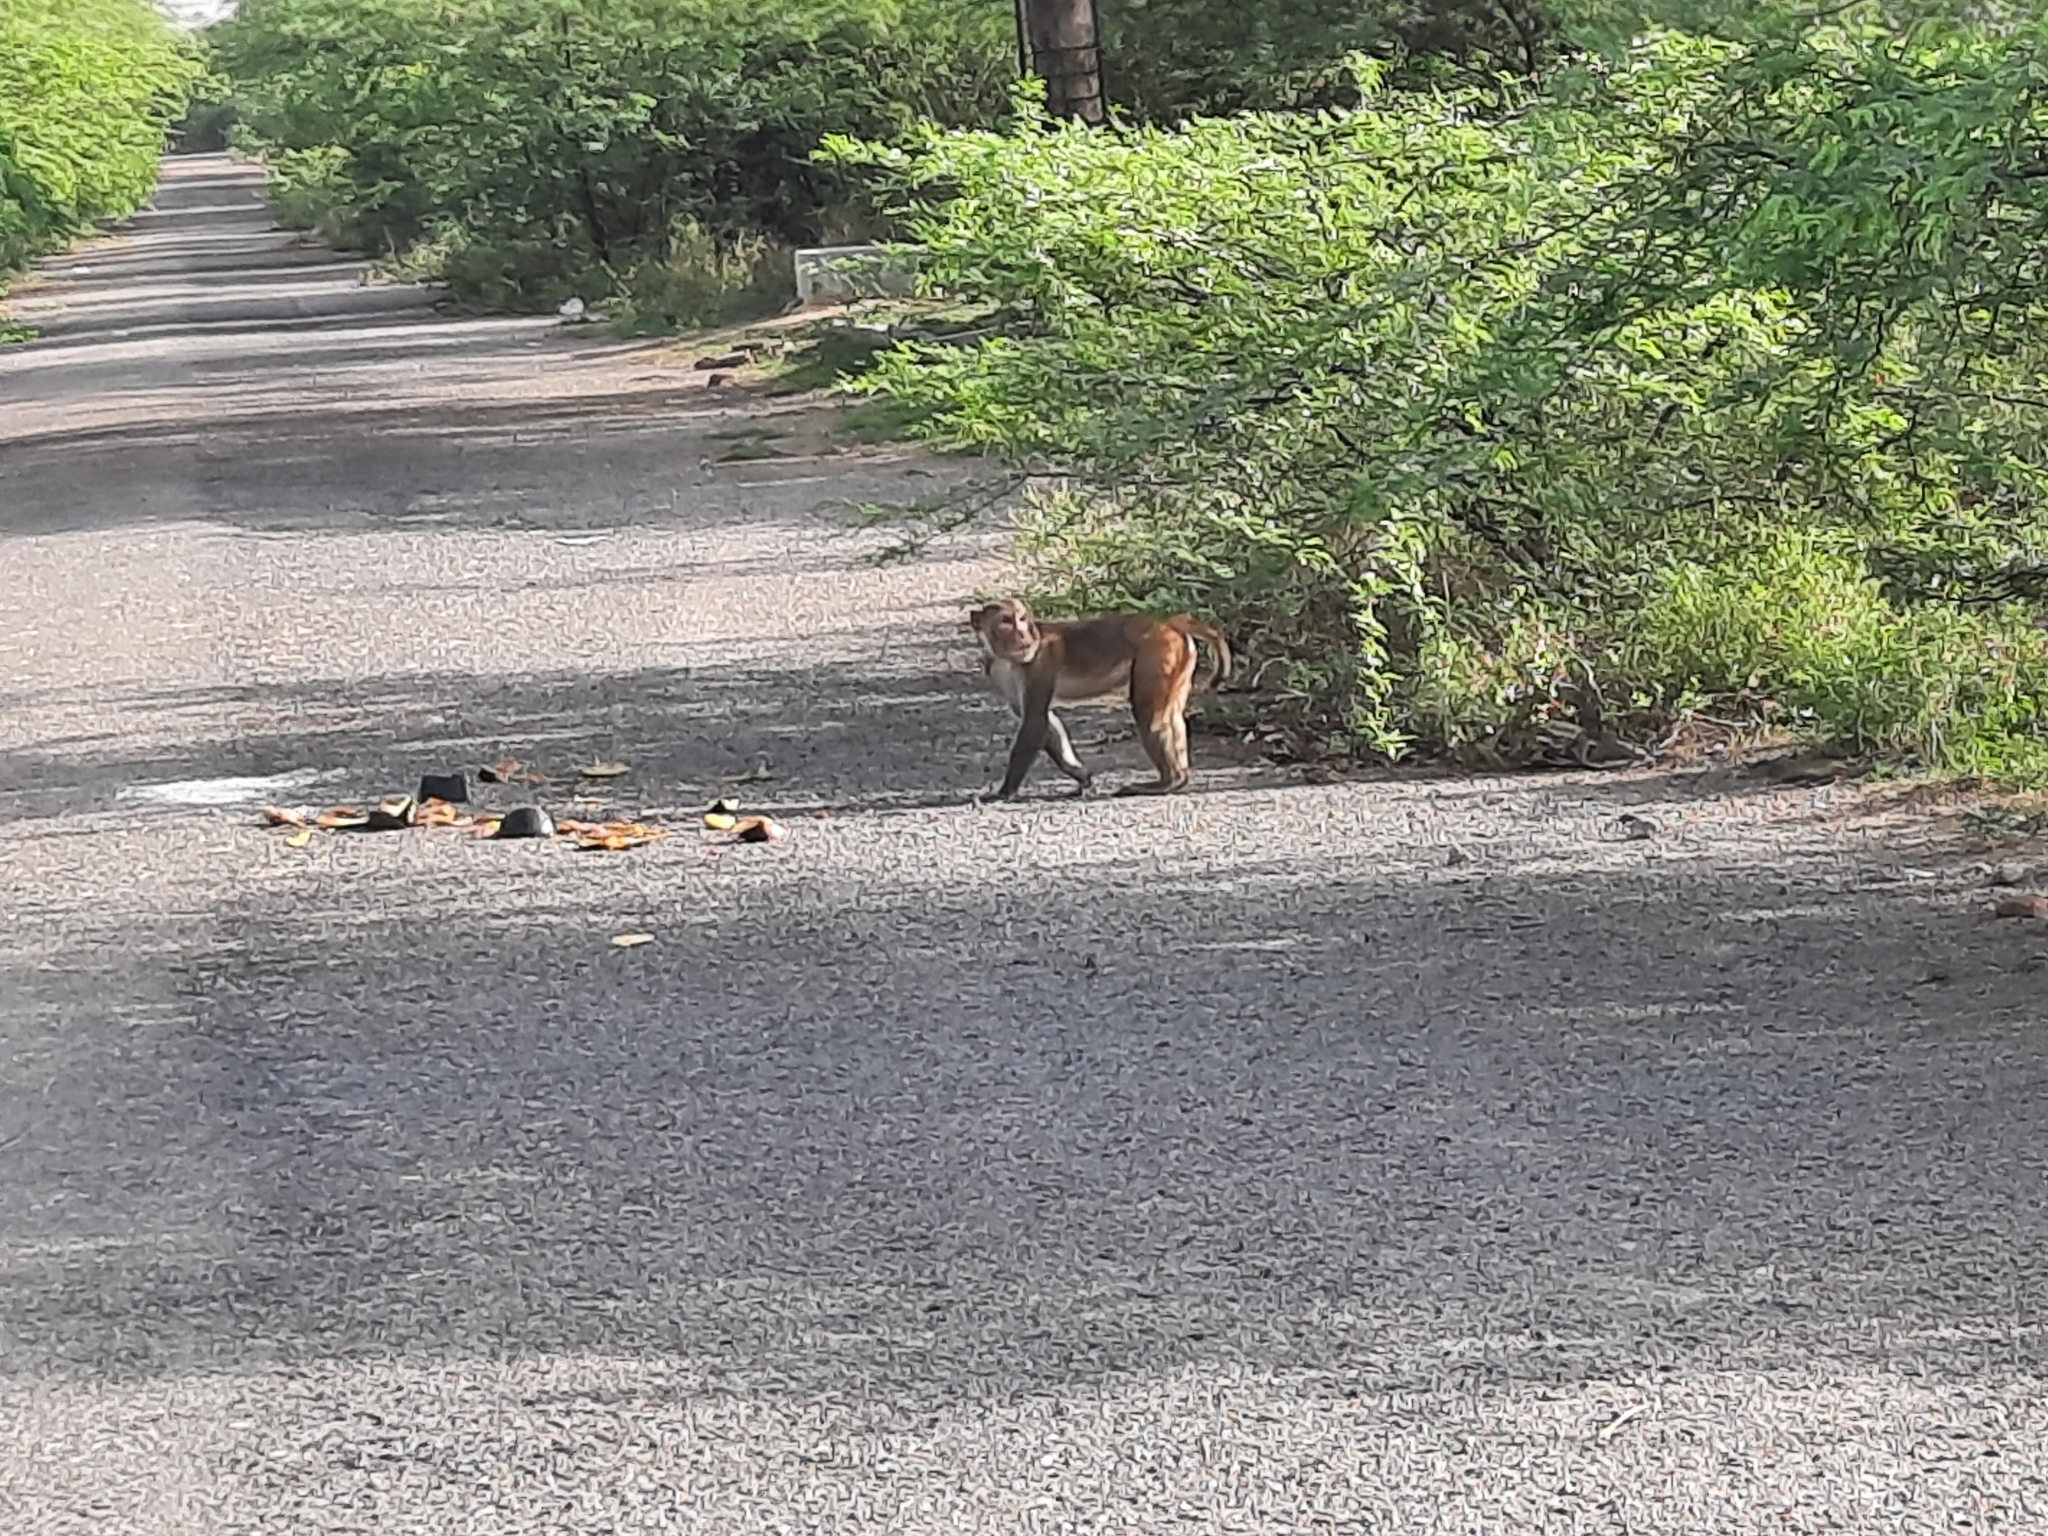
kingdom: Animalia
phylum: Chordata
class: Mammalia
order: Primates
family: Cercopithecidae
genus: Macaca
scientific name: Macaca mulatta
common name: Rhesus monkey
